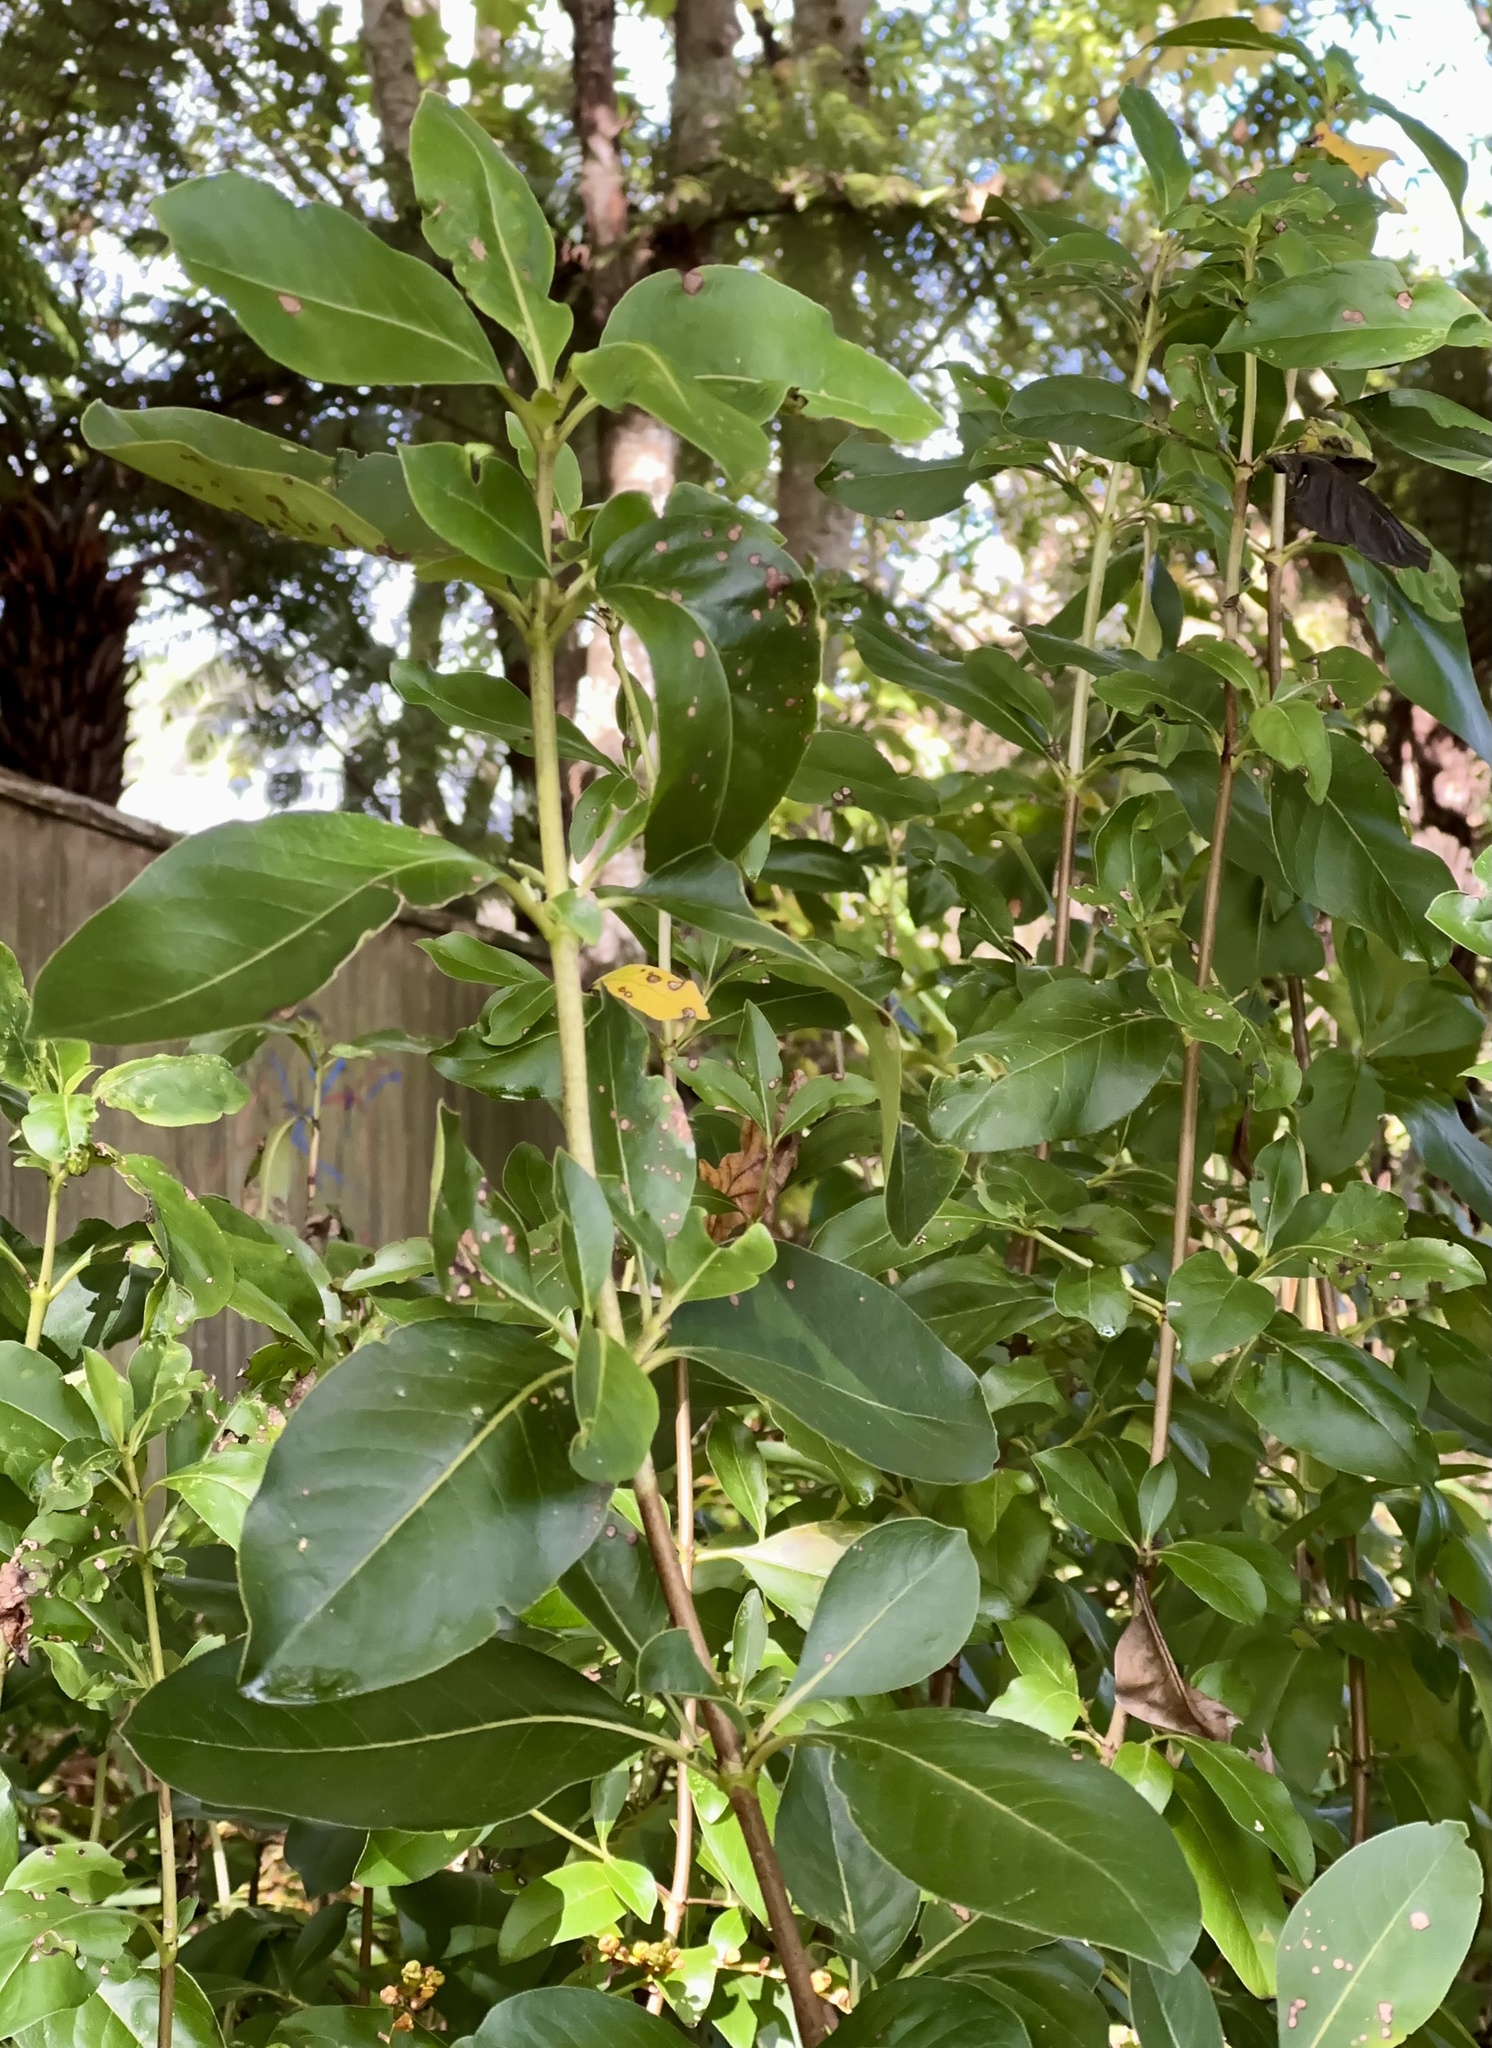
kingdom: Plantae
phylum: Tracheophyta
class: Magnoliopsida
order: Gentianales
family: Rubiaceae
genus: Coprosma
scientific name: Coprosma robusta
